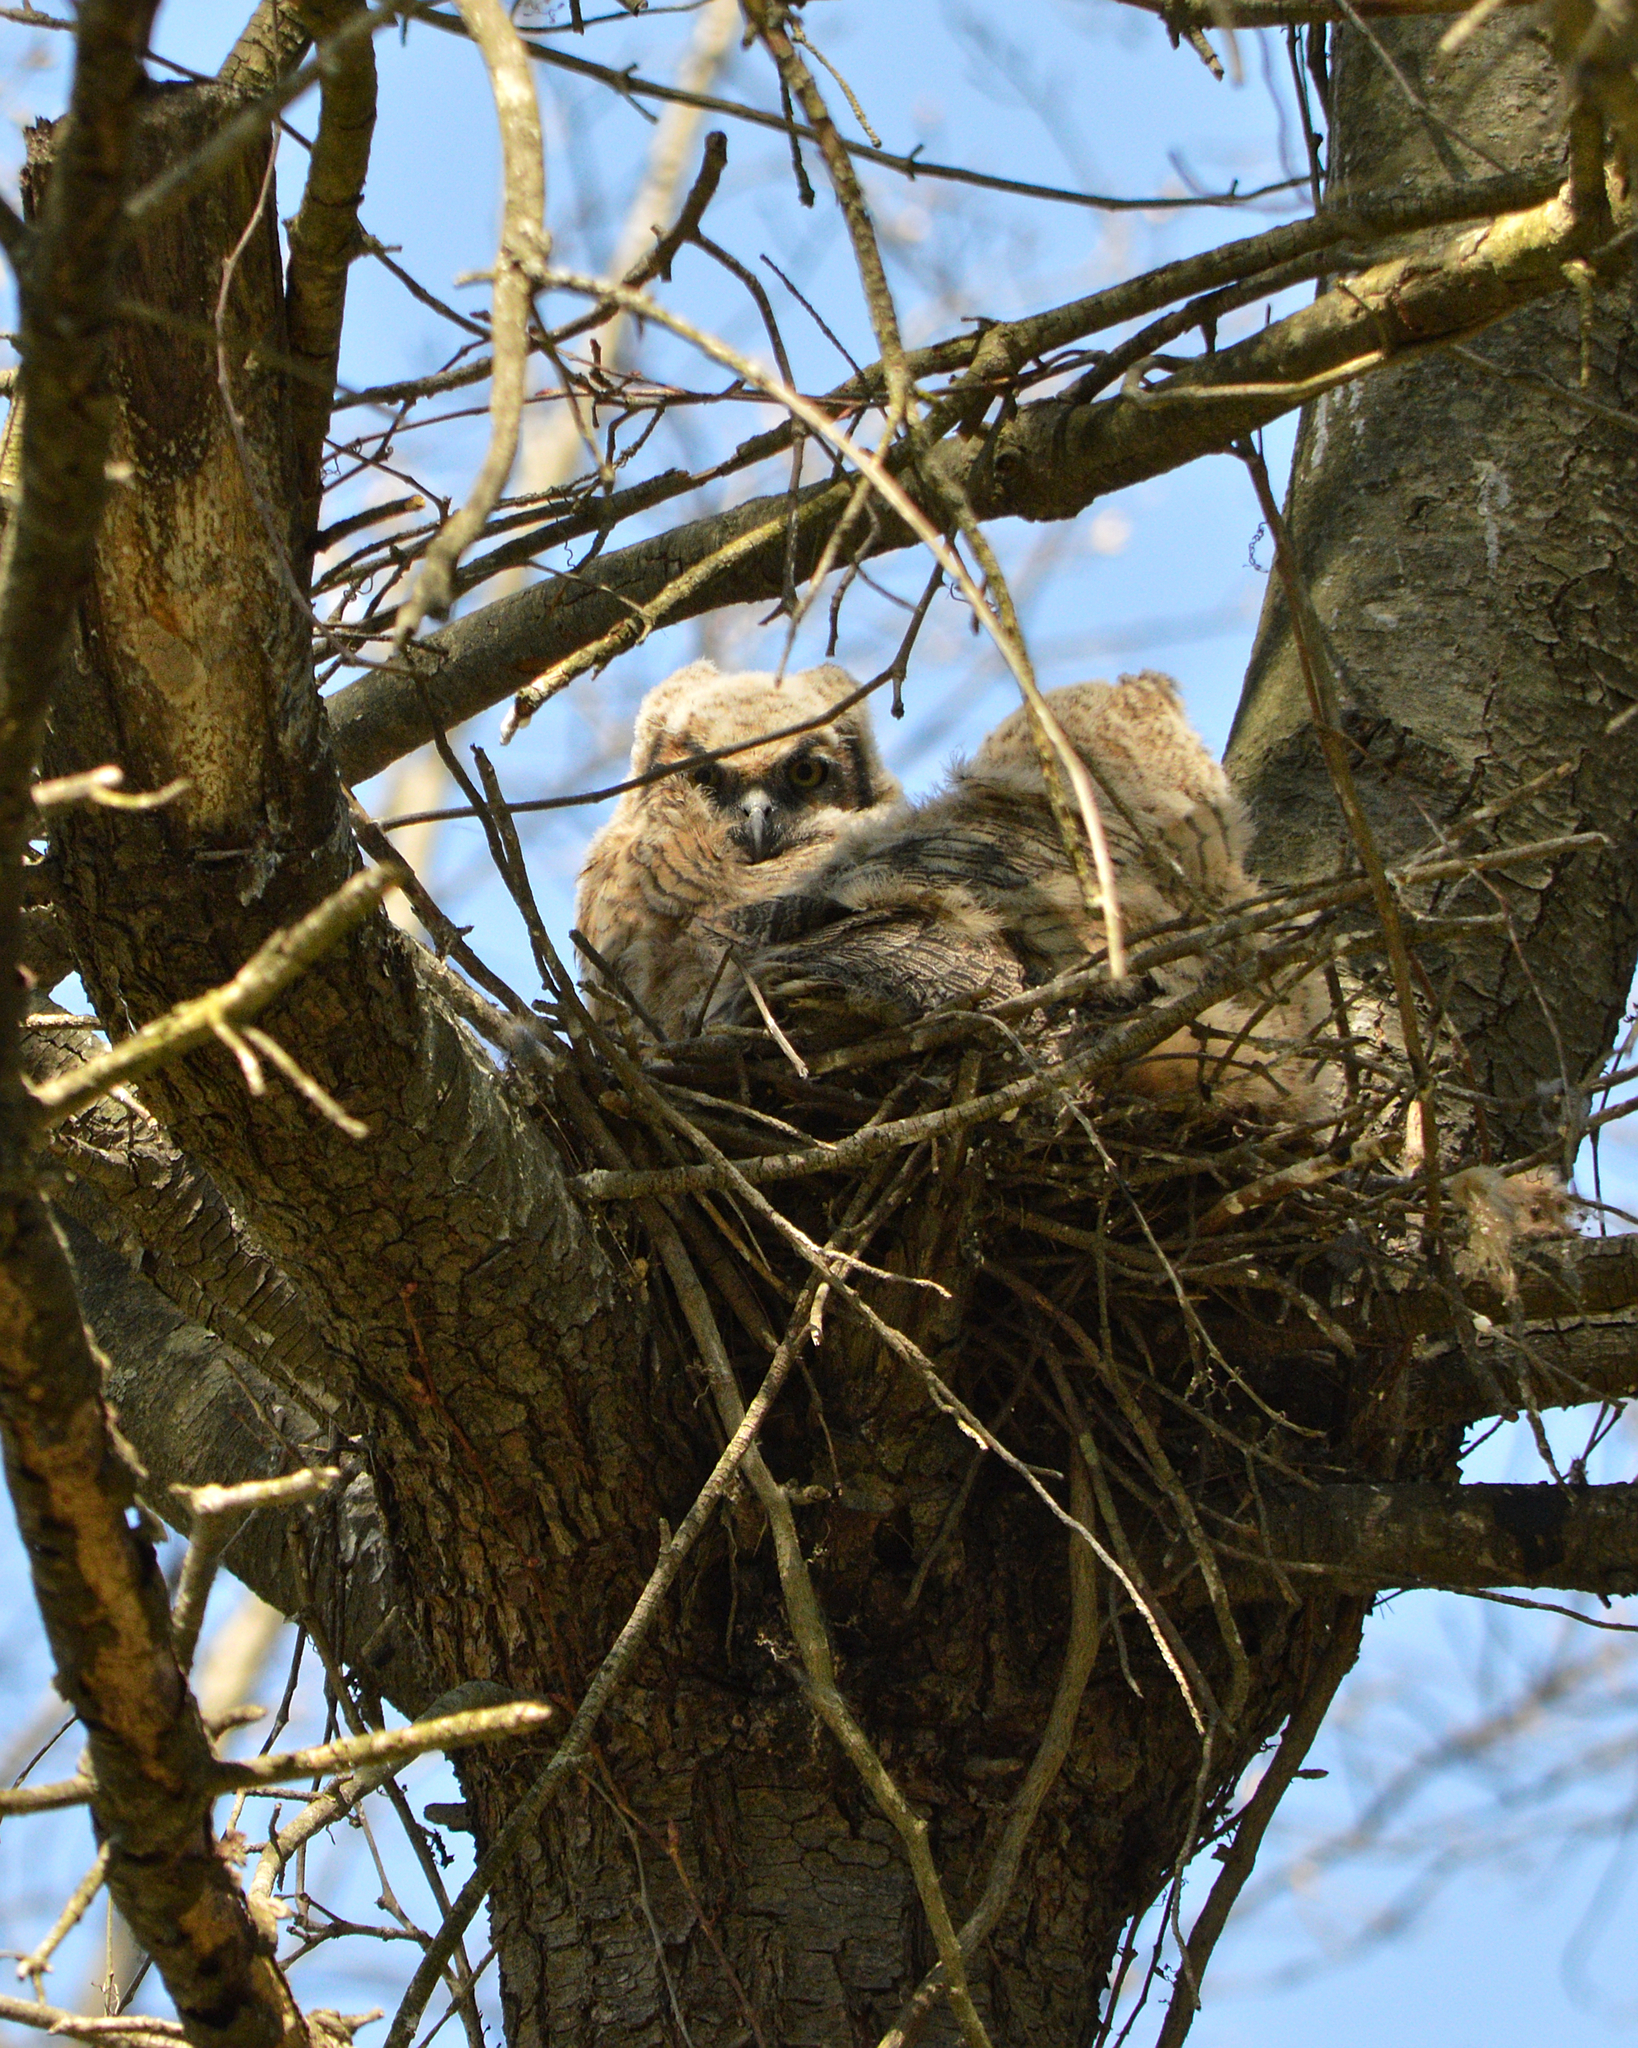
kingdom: Animalia
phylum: Chordata
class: Aves
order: Strigiformes
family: Strigidae
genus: Bubo
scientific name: Bubo virginianus
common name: Great horned owl
